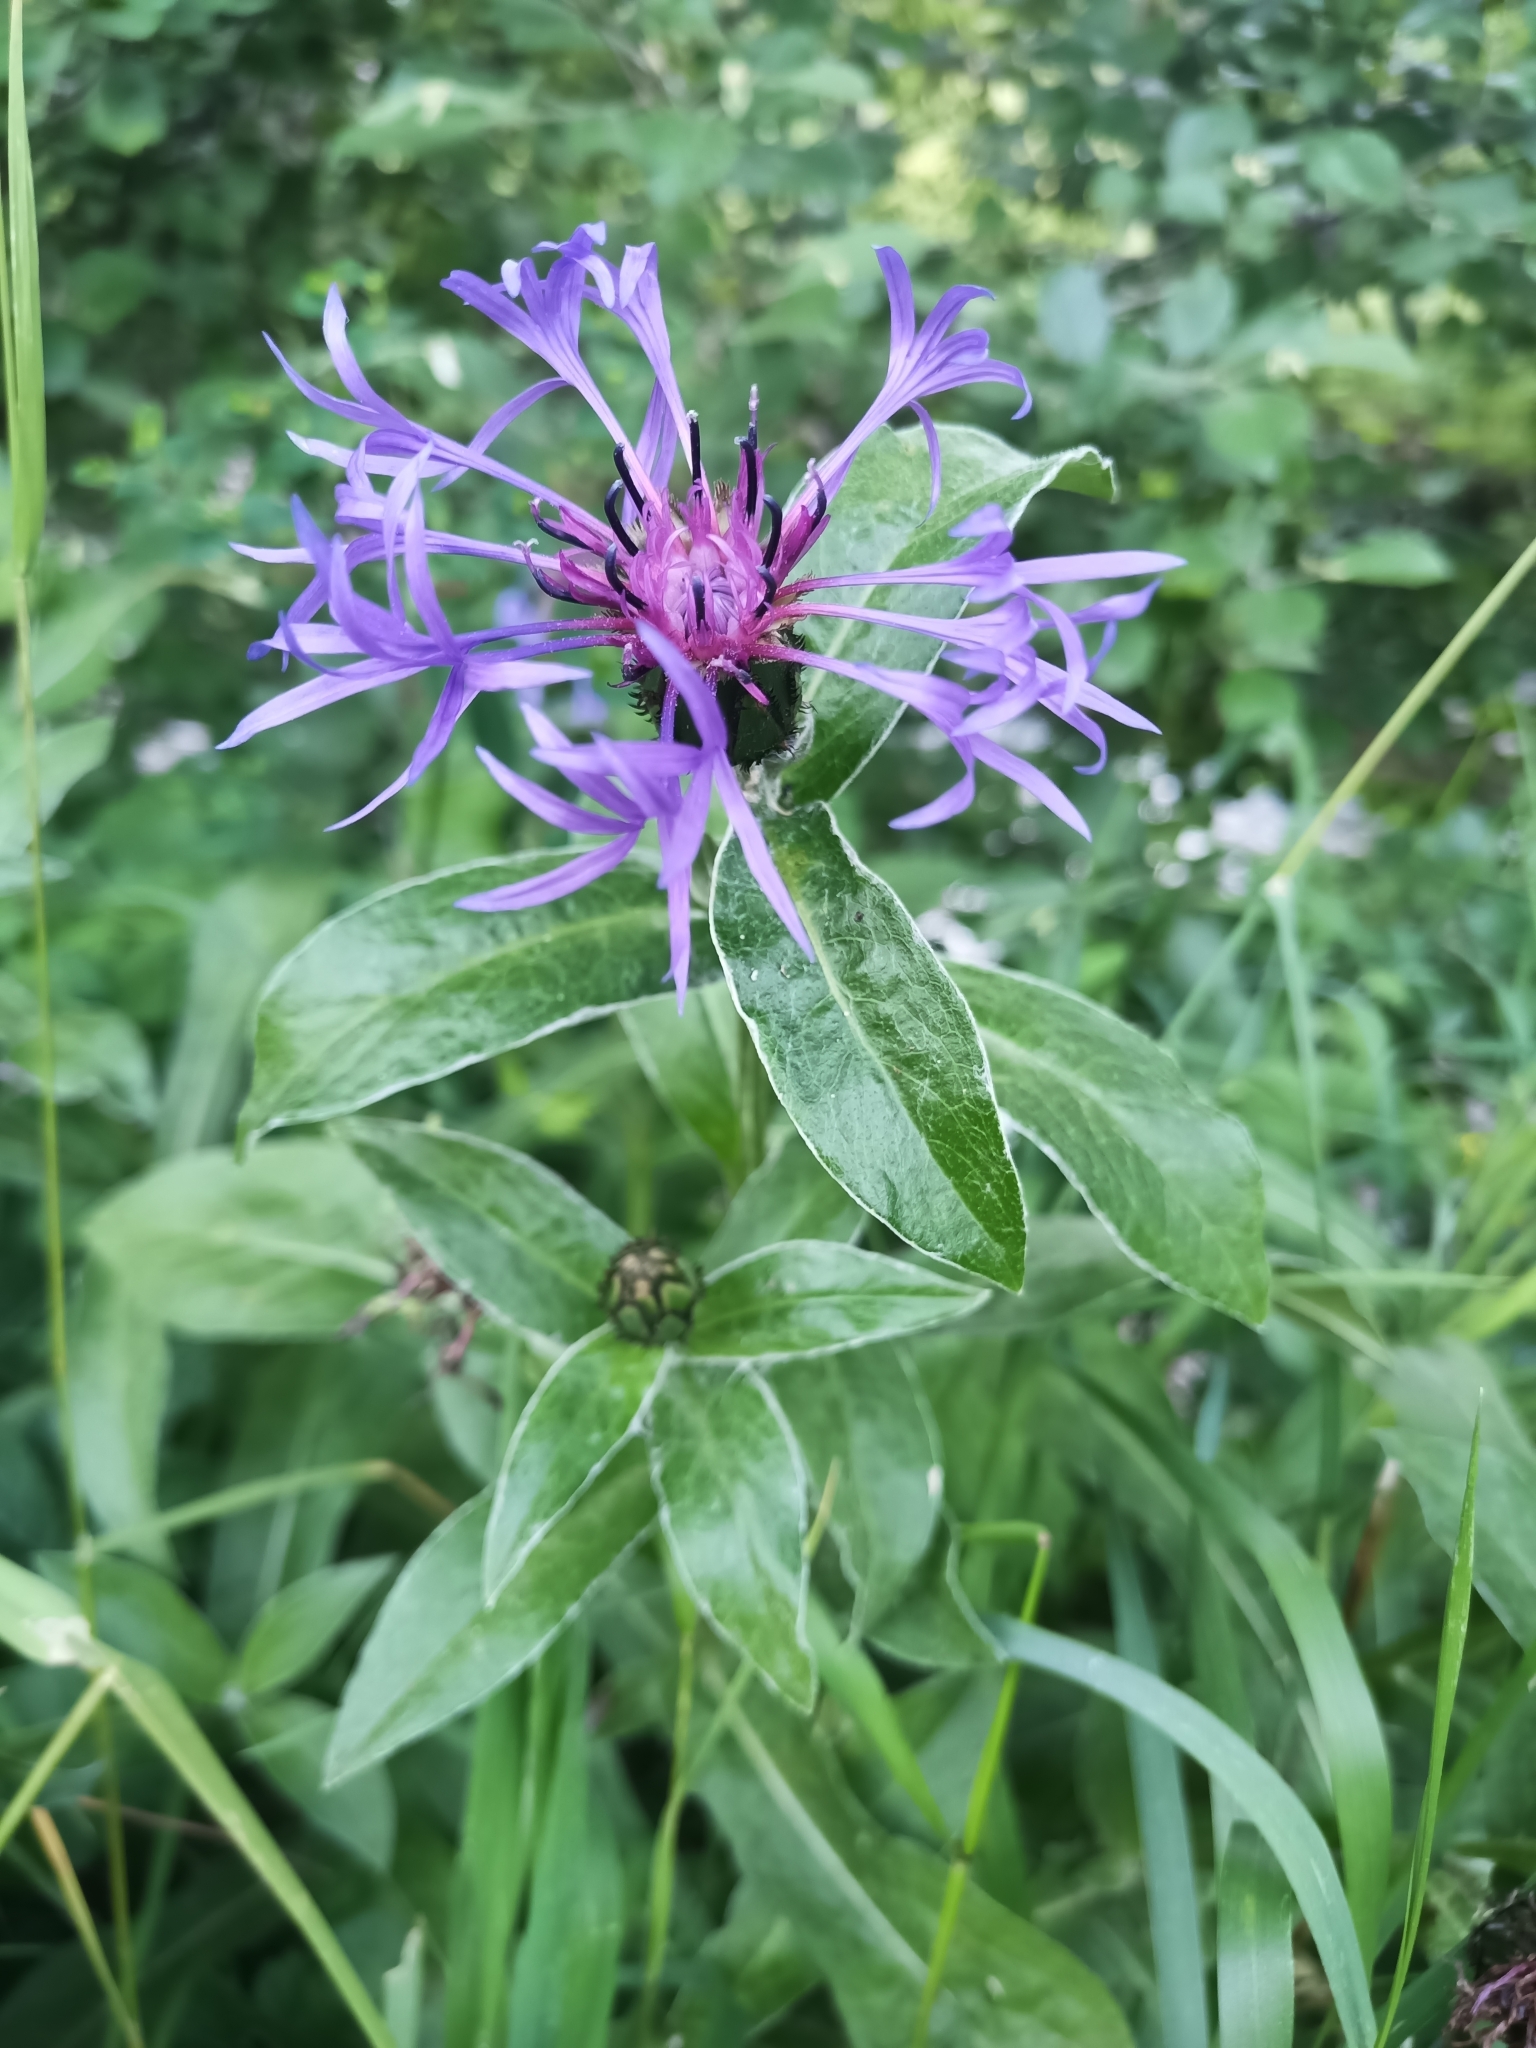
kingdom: Plantae
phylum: Tracheophyta
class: Magnoliopsida
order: Asterales
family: Asteraceae
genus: Centaurea
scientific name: Centaurea montana
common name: Perennial cornflower
